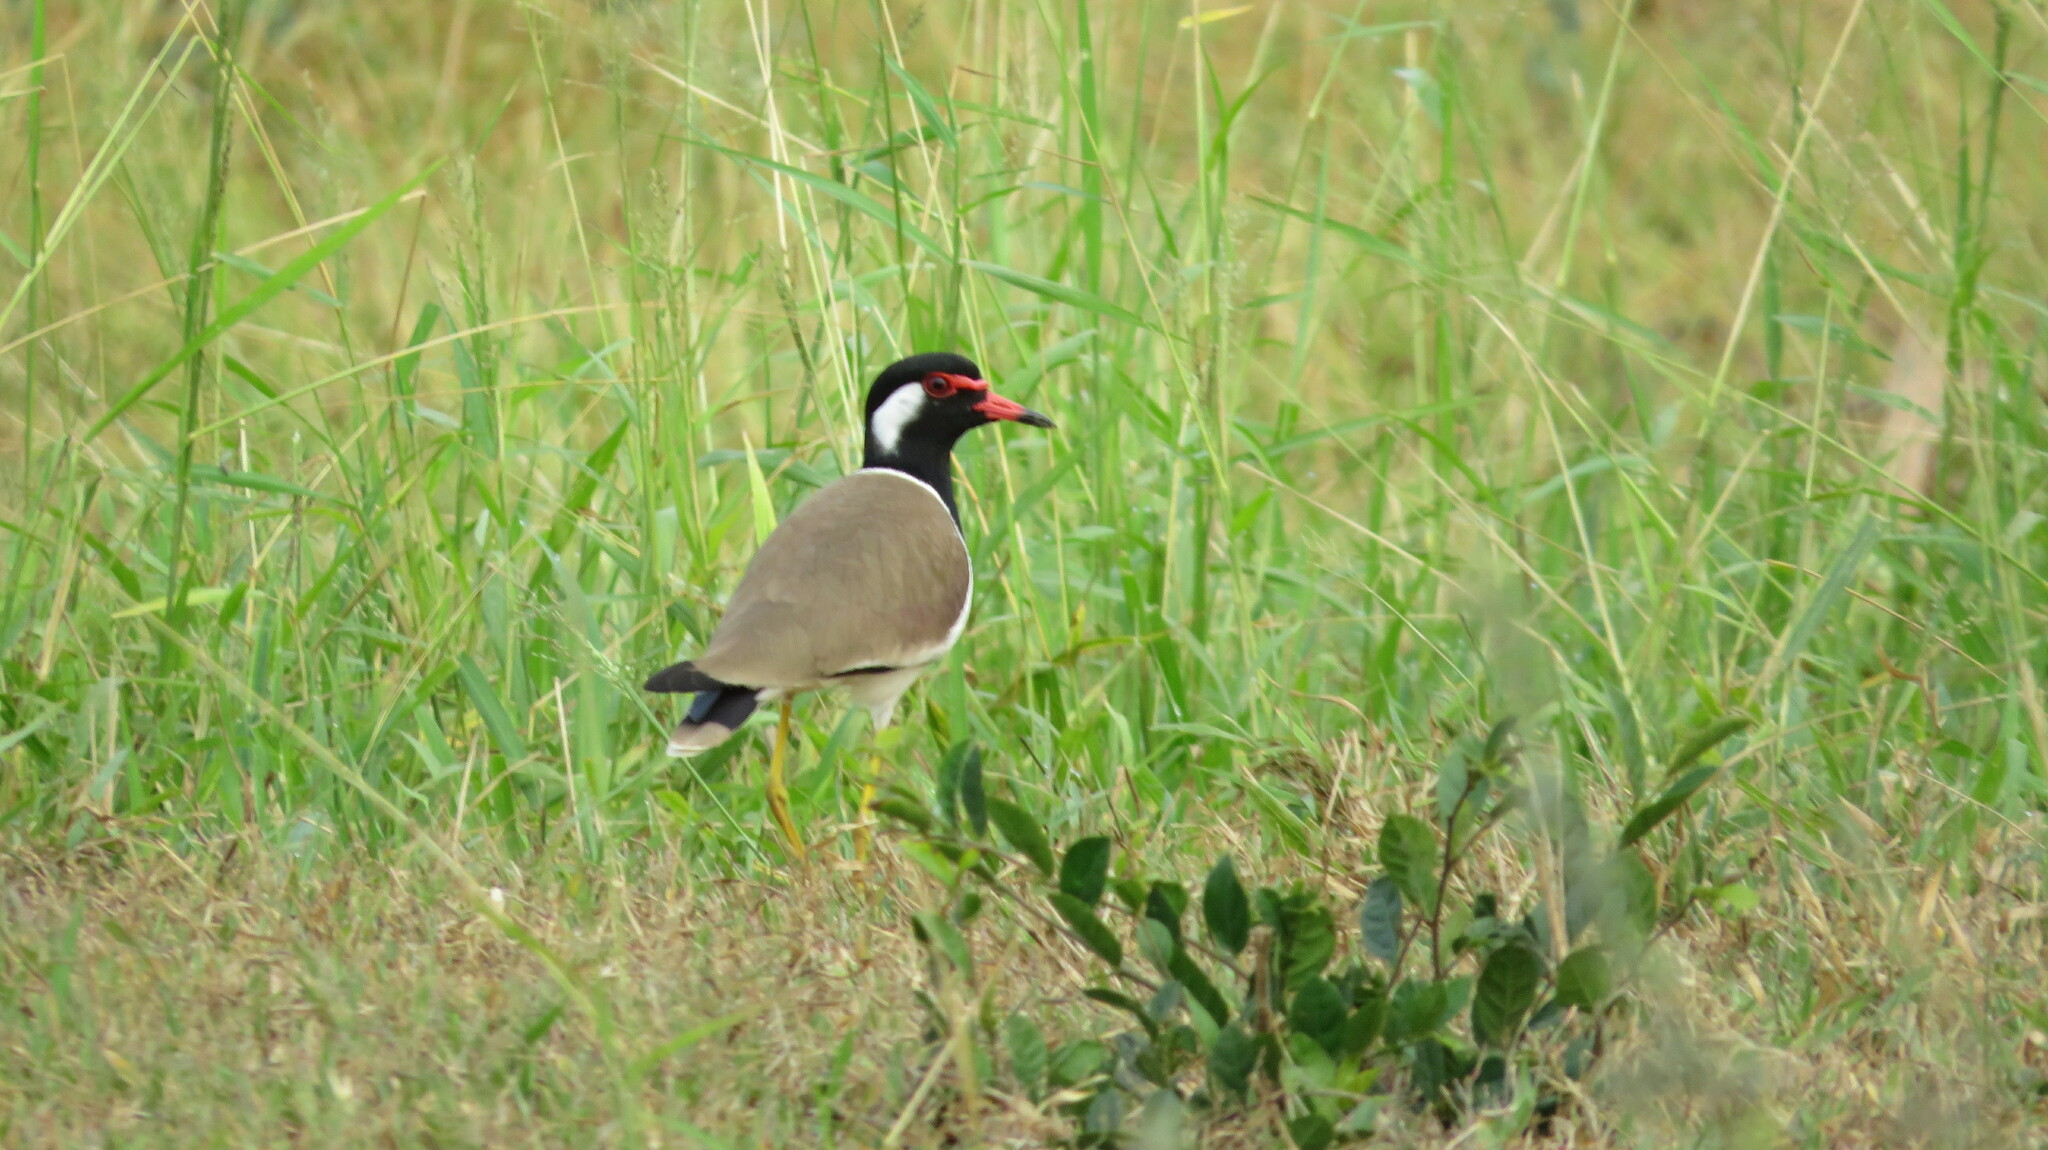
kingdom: Animalia
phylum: Chordata
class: Aves
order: Charadriiformes
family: Charadriidae
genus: Vanellus
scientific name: Vanellus indicus
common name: Red-wattled lapwing
